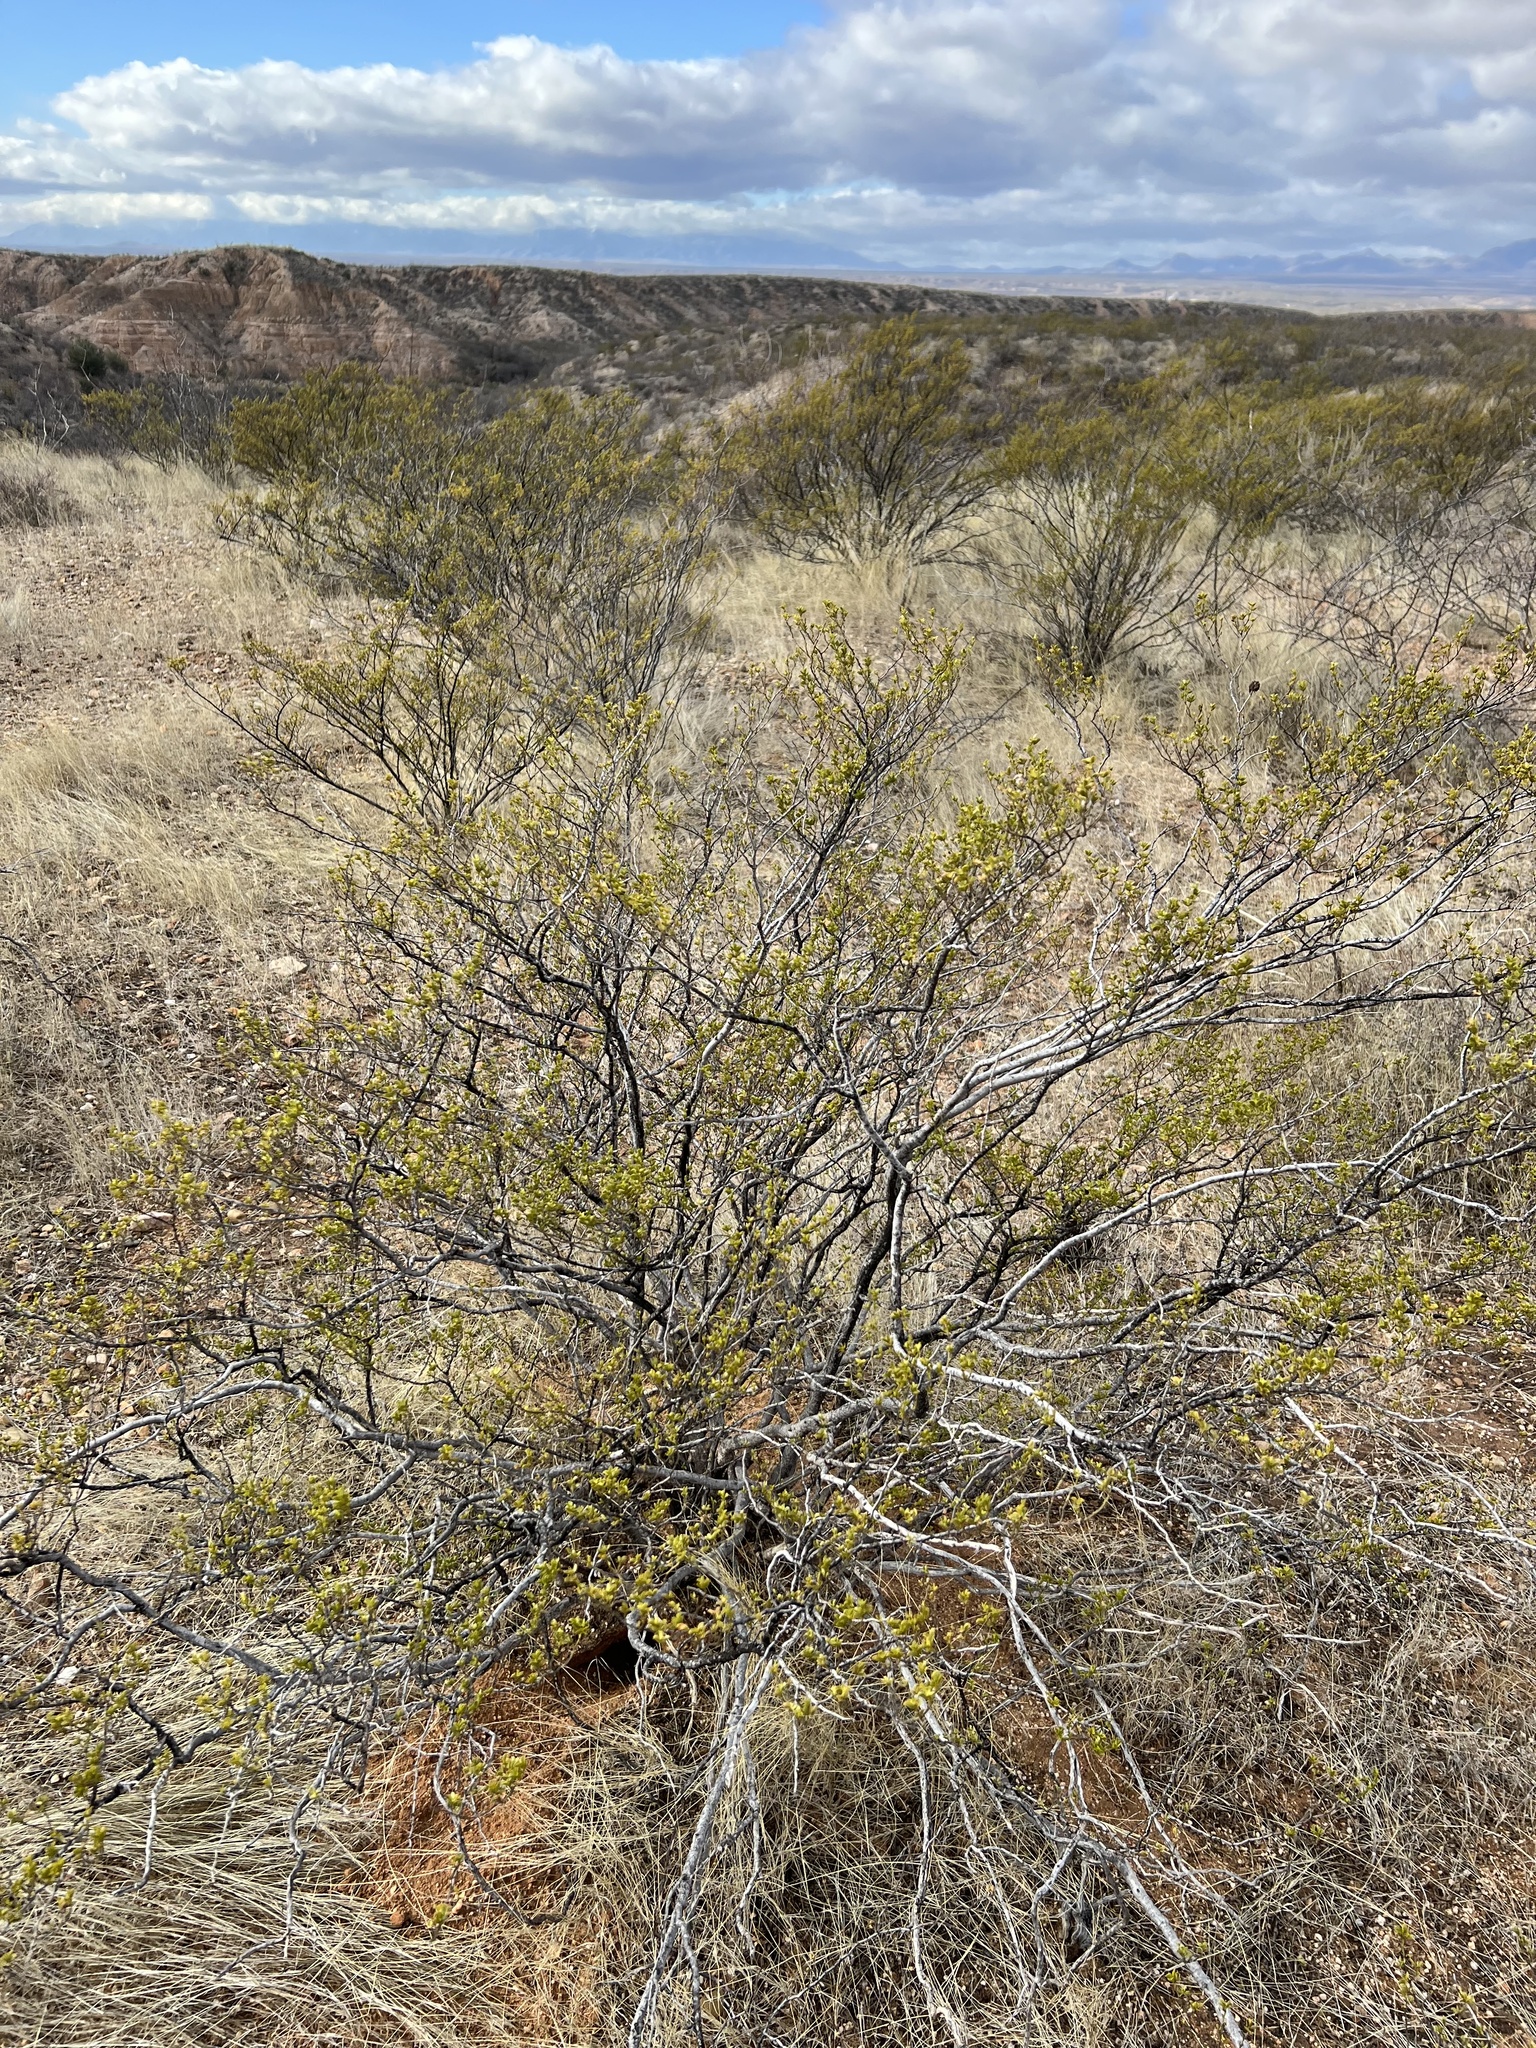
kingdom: Plantae
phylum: Tracheophyta
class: Magnoliopsida
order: Zygophyllales
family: Zygophyllaceae
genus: Larrea
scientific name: Larrea tridentata
